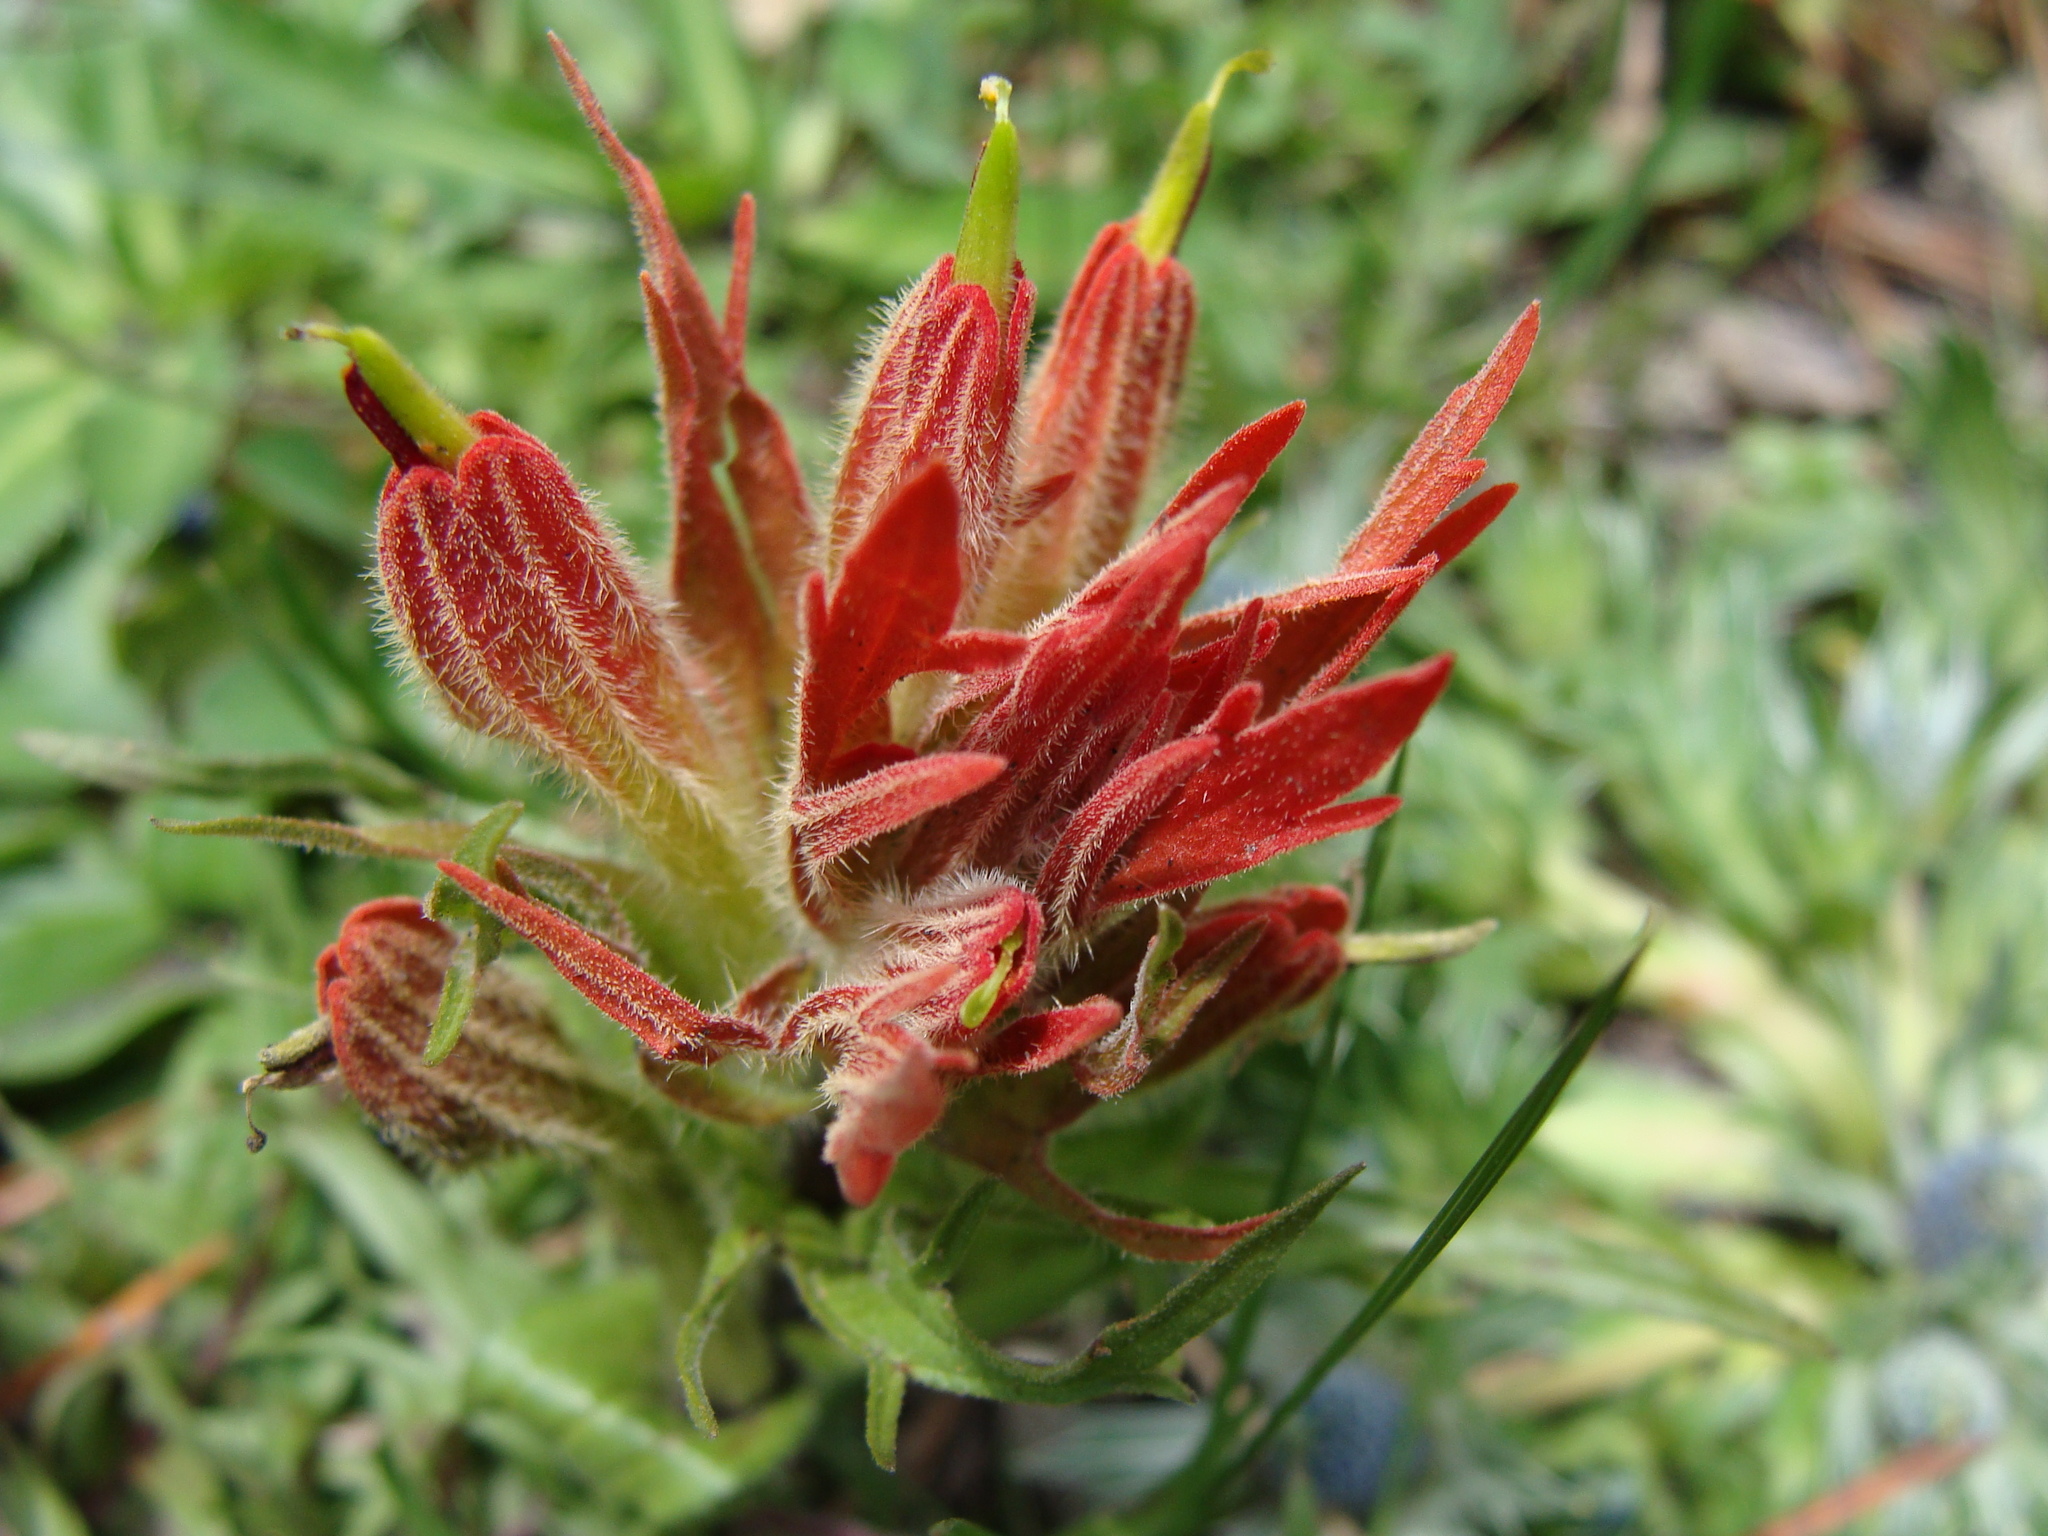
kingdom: Plantae
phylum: Tracheophyta
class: Magnoliopsida
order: Lamiales
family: Orobanchaceae
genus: Castilleja
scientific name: Castilleja moranensis
